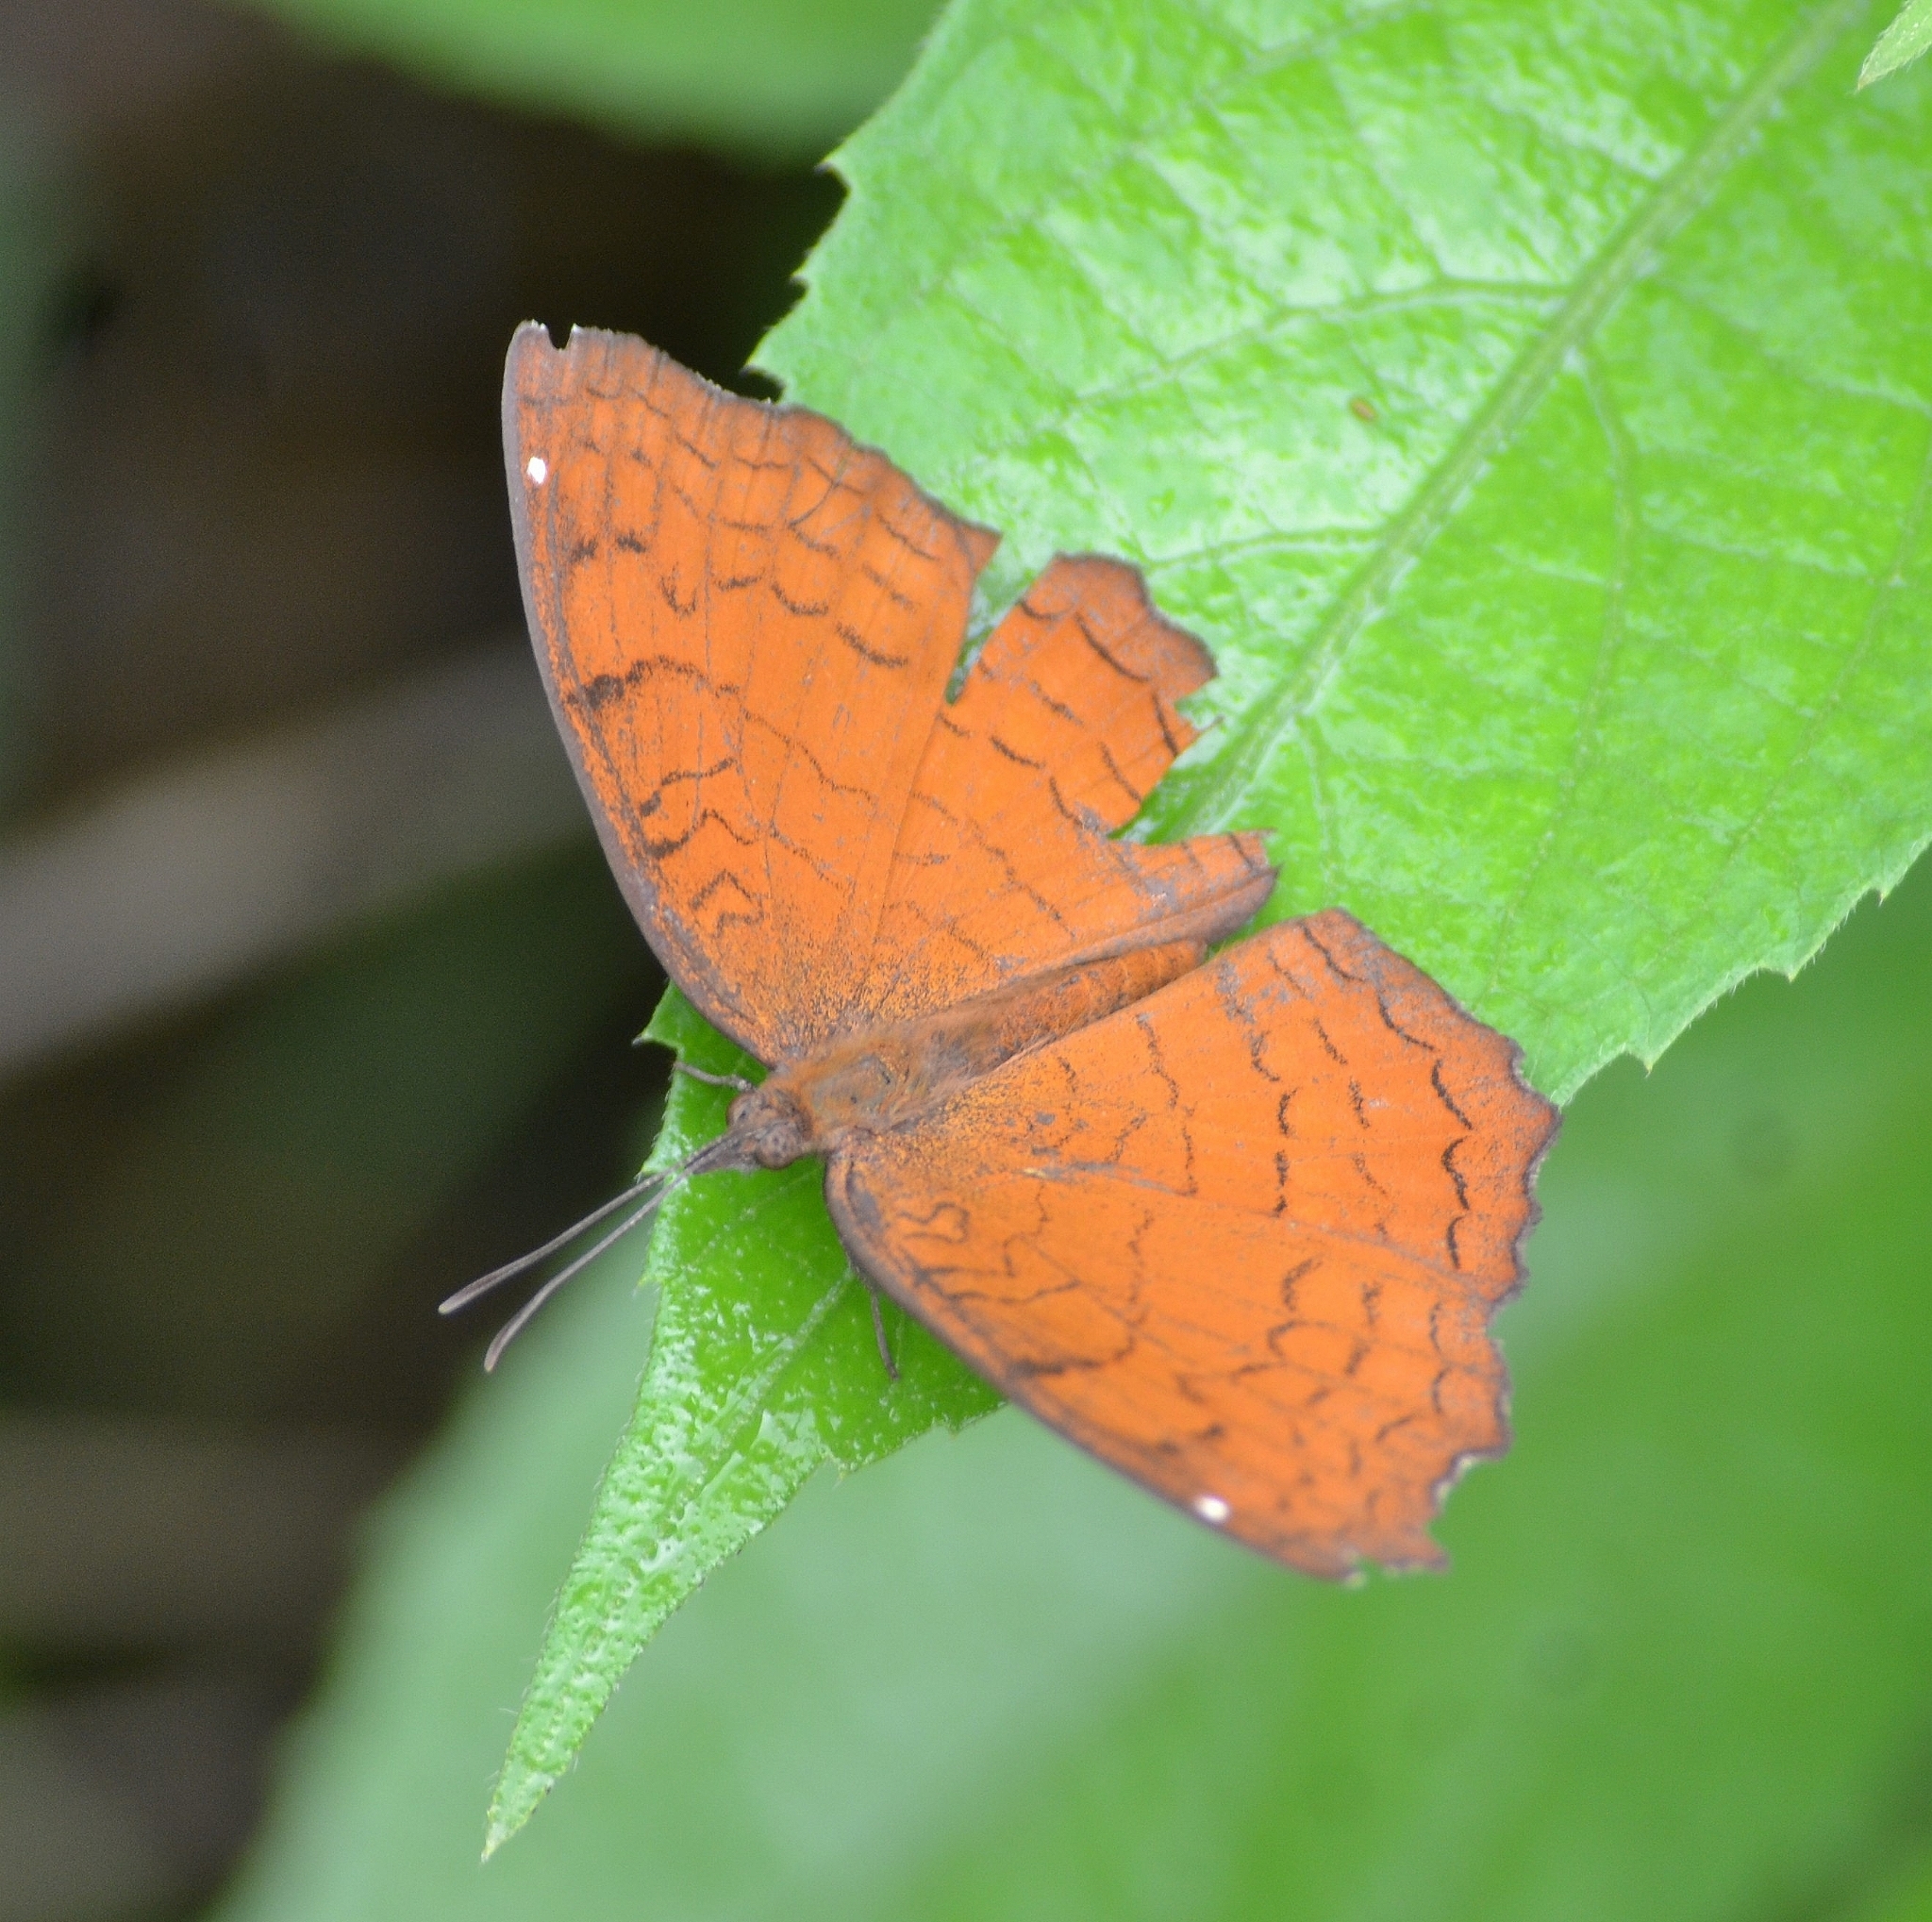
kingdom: Animalia
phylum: Arthropoda
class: Insecta
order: Lepidoptera
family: Nymphalidae
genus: Ariadne
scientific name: Ariadne ariadne
